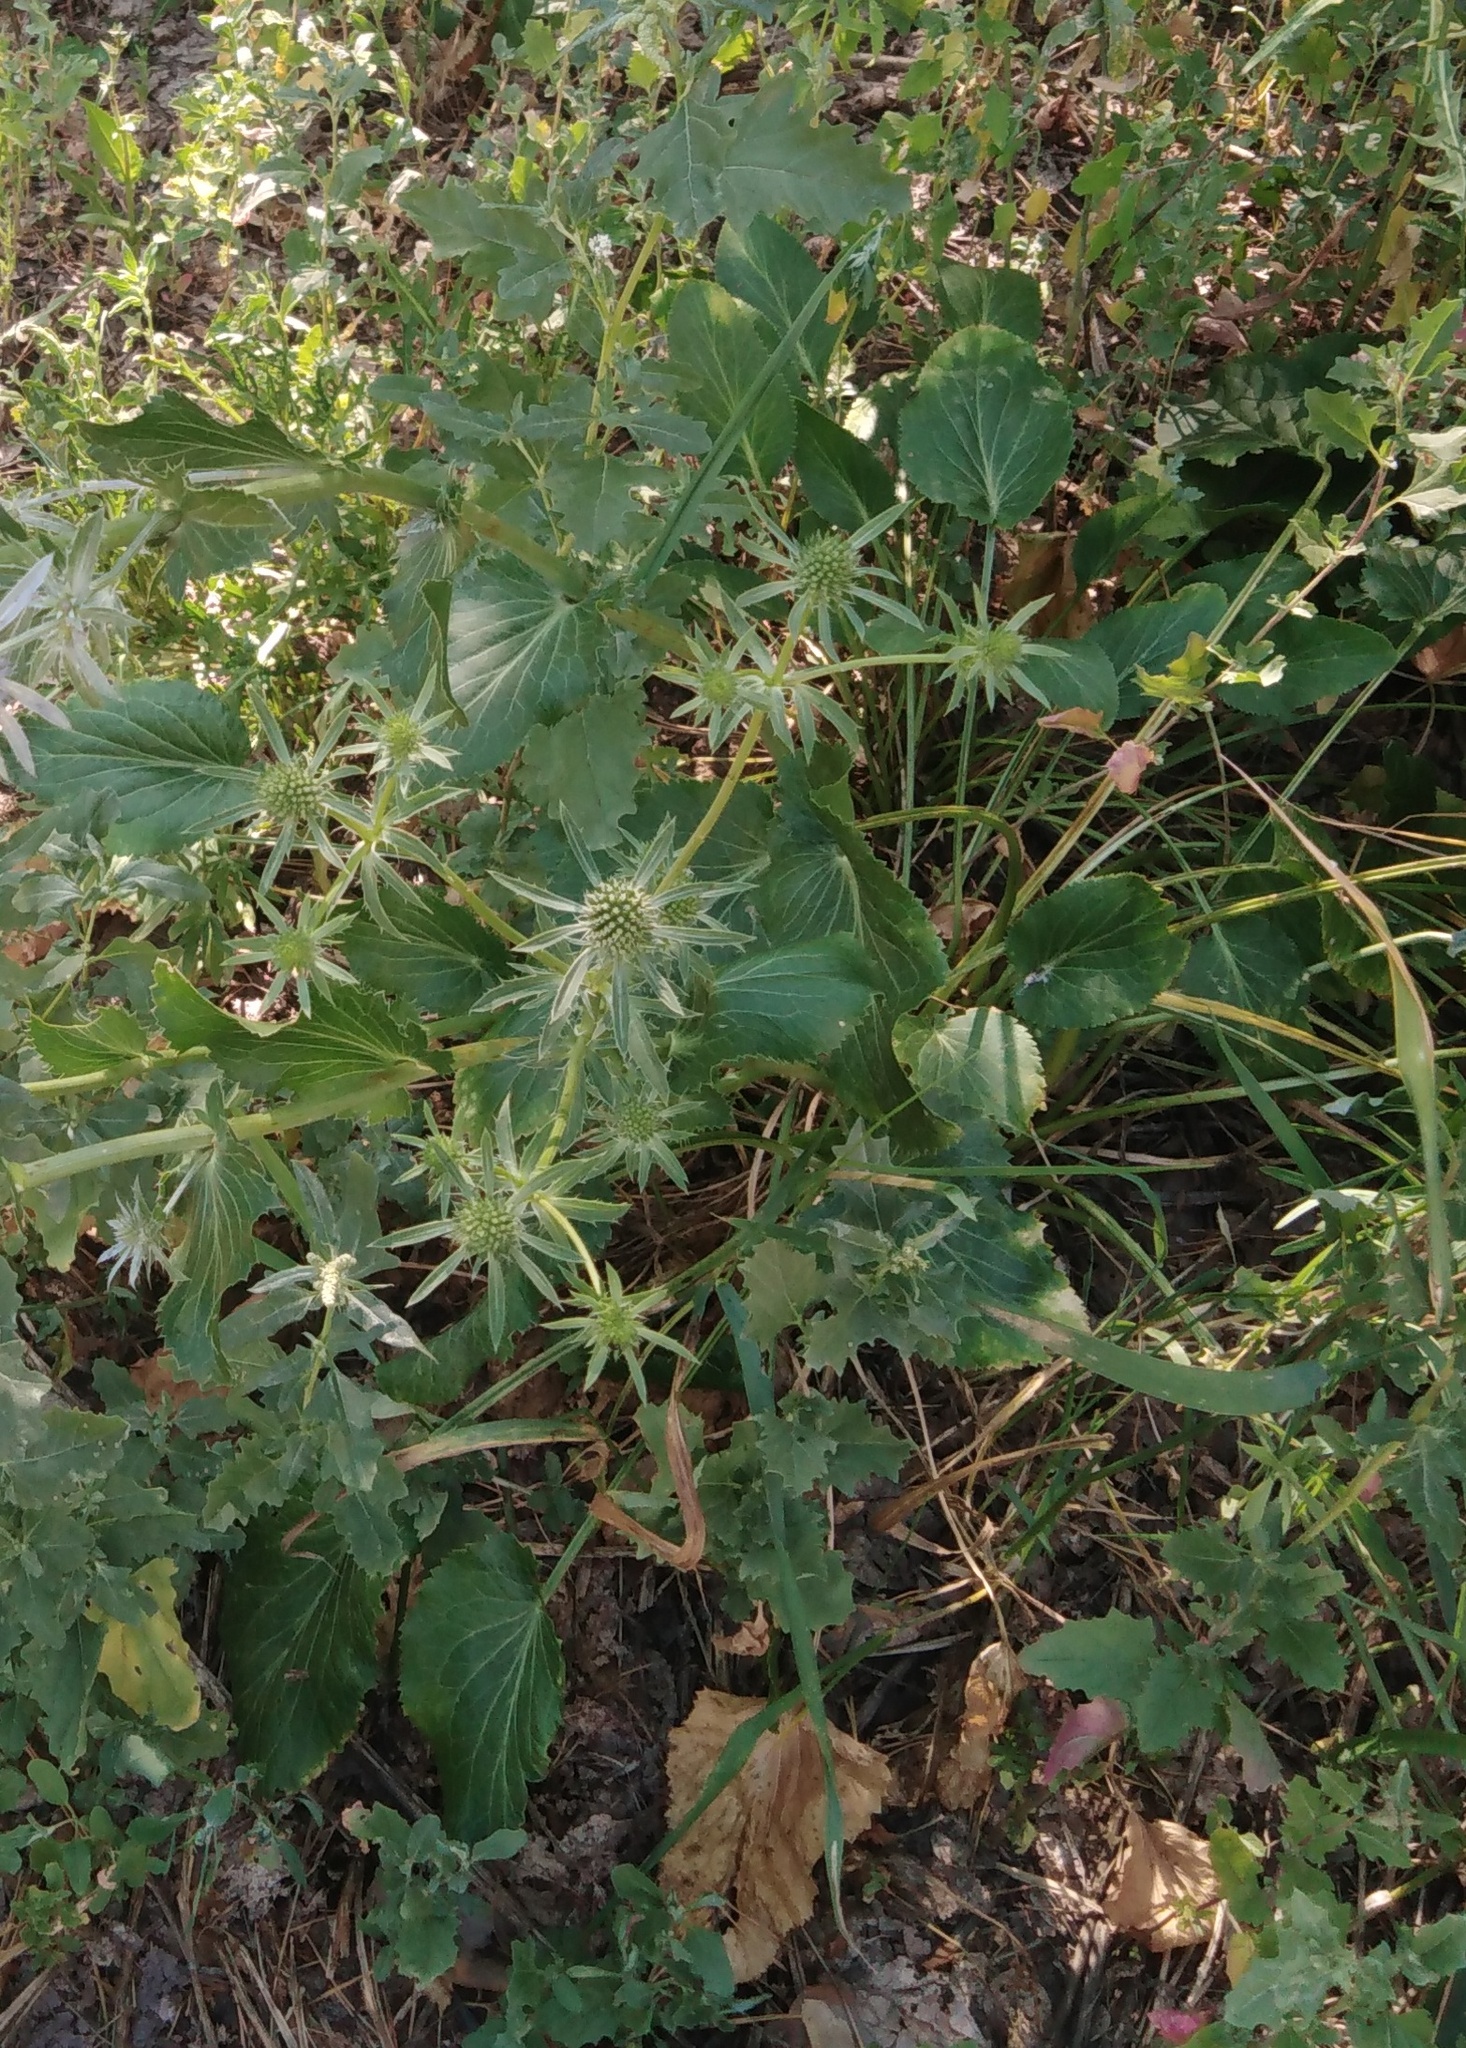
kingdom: Plantae
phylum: Tracheophyta
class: Magnoliopsida
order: Apiales
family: Apiaceae
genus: Eryngium
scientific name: Eryngium planum
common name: Blue eryngo
